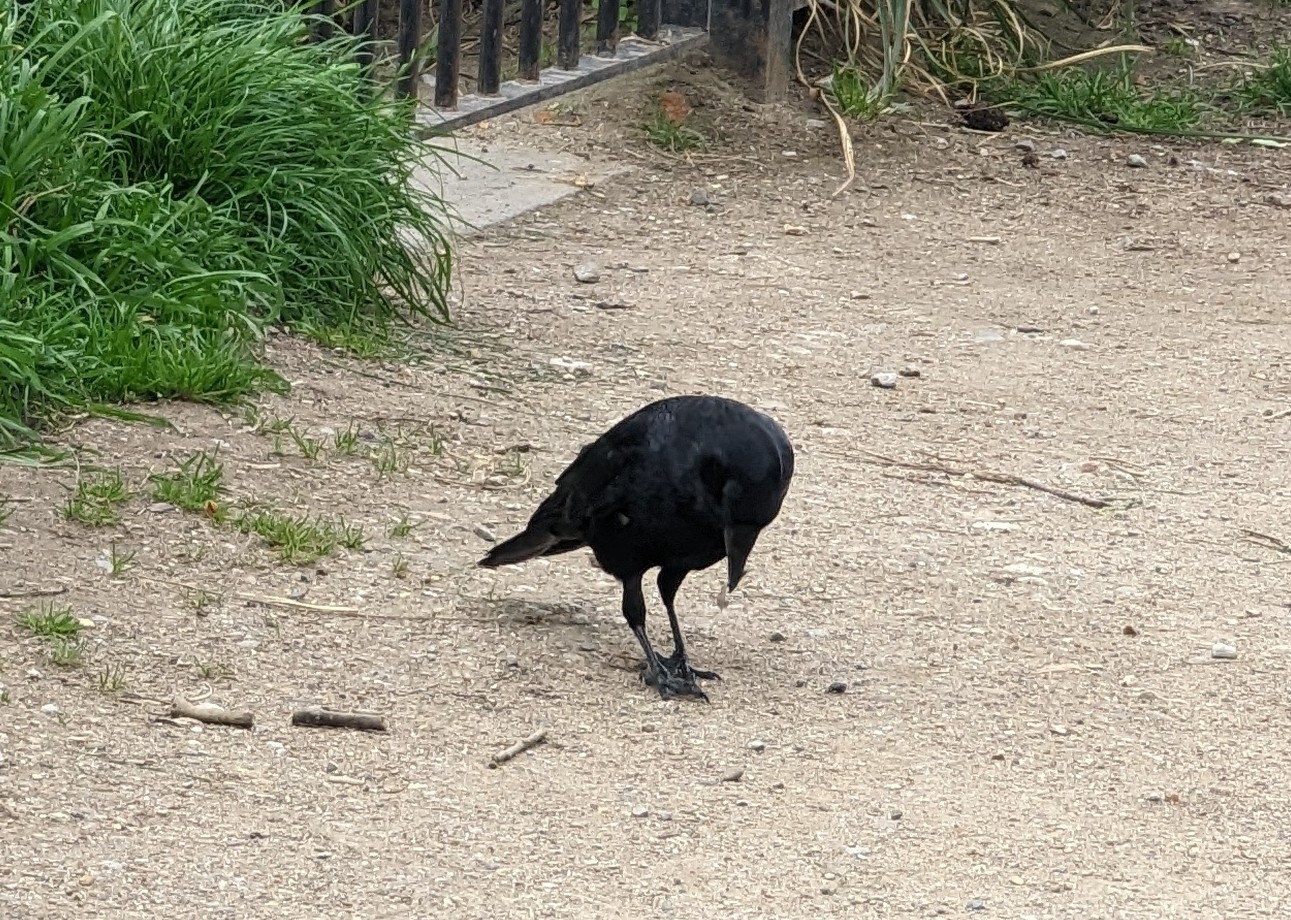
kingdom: Animalia
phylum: Chordata
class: Aves
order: Passeriformes
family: Corvidae
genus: Corvus
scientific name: Corvus corone
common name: Carrion crow
